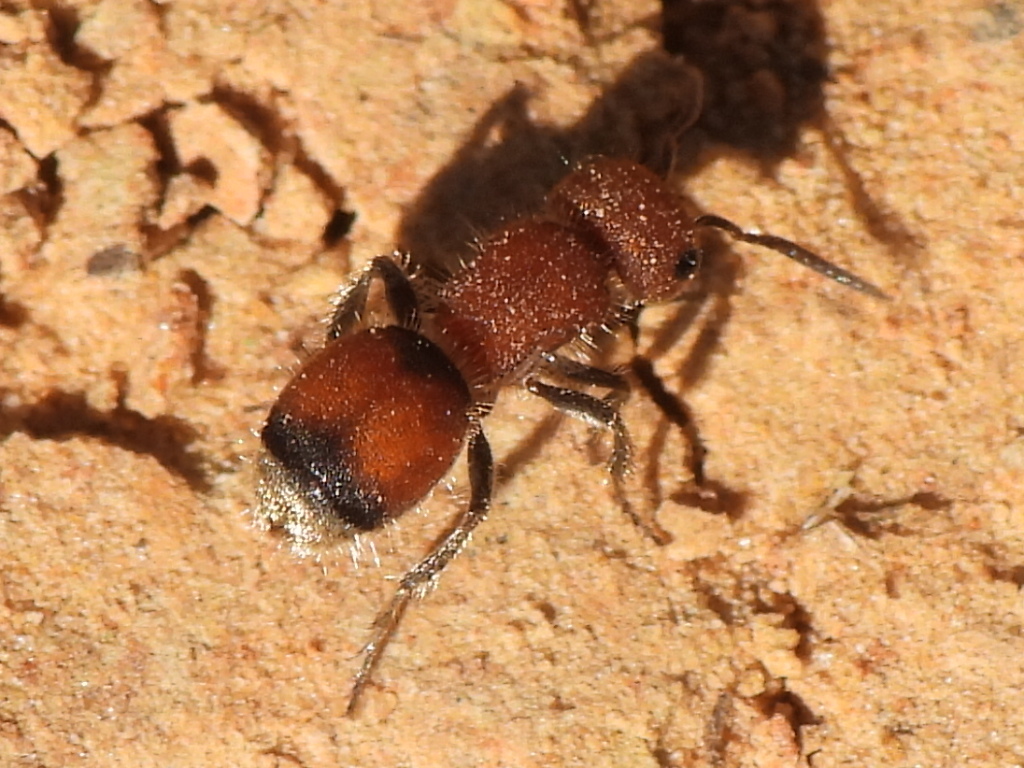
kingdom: Animalia
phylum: Arthropoda
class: Insecta
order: Hymenoptera
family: Mutillidae
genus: Pseudomethoca
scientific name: Pseudomethoca
